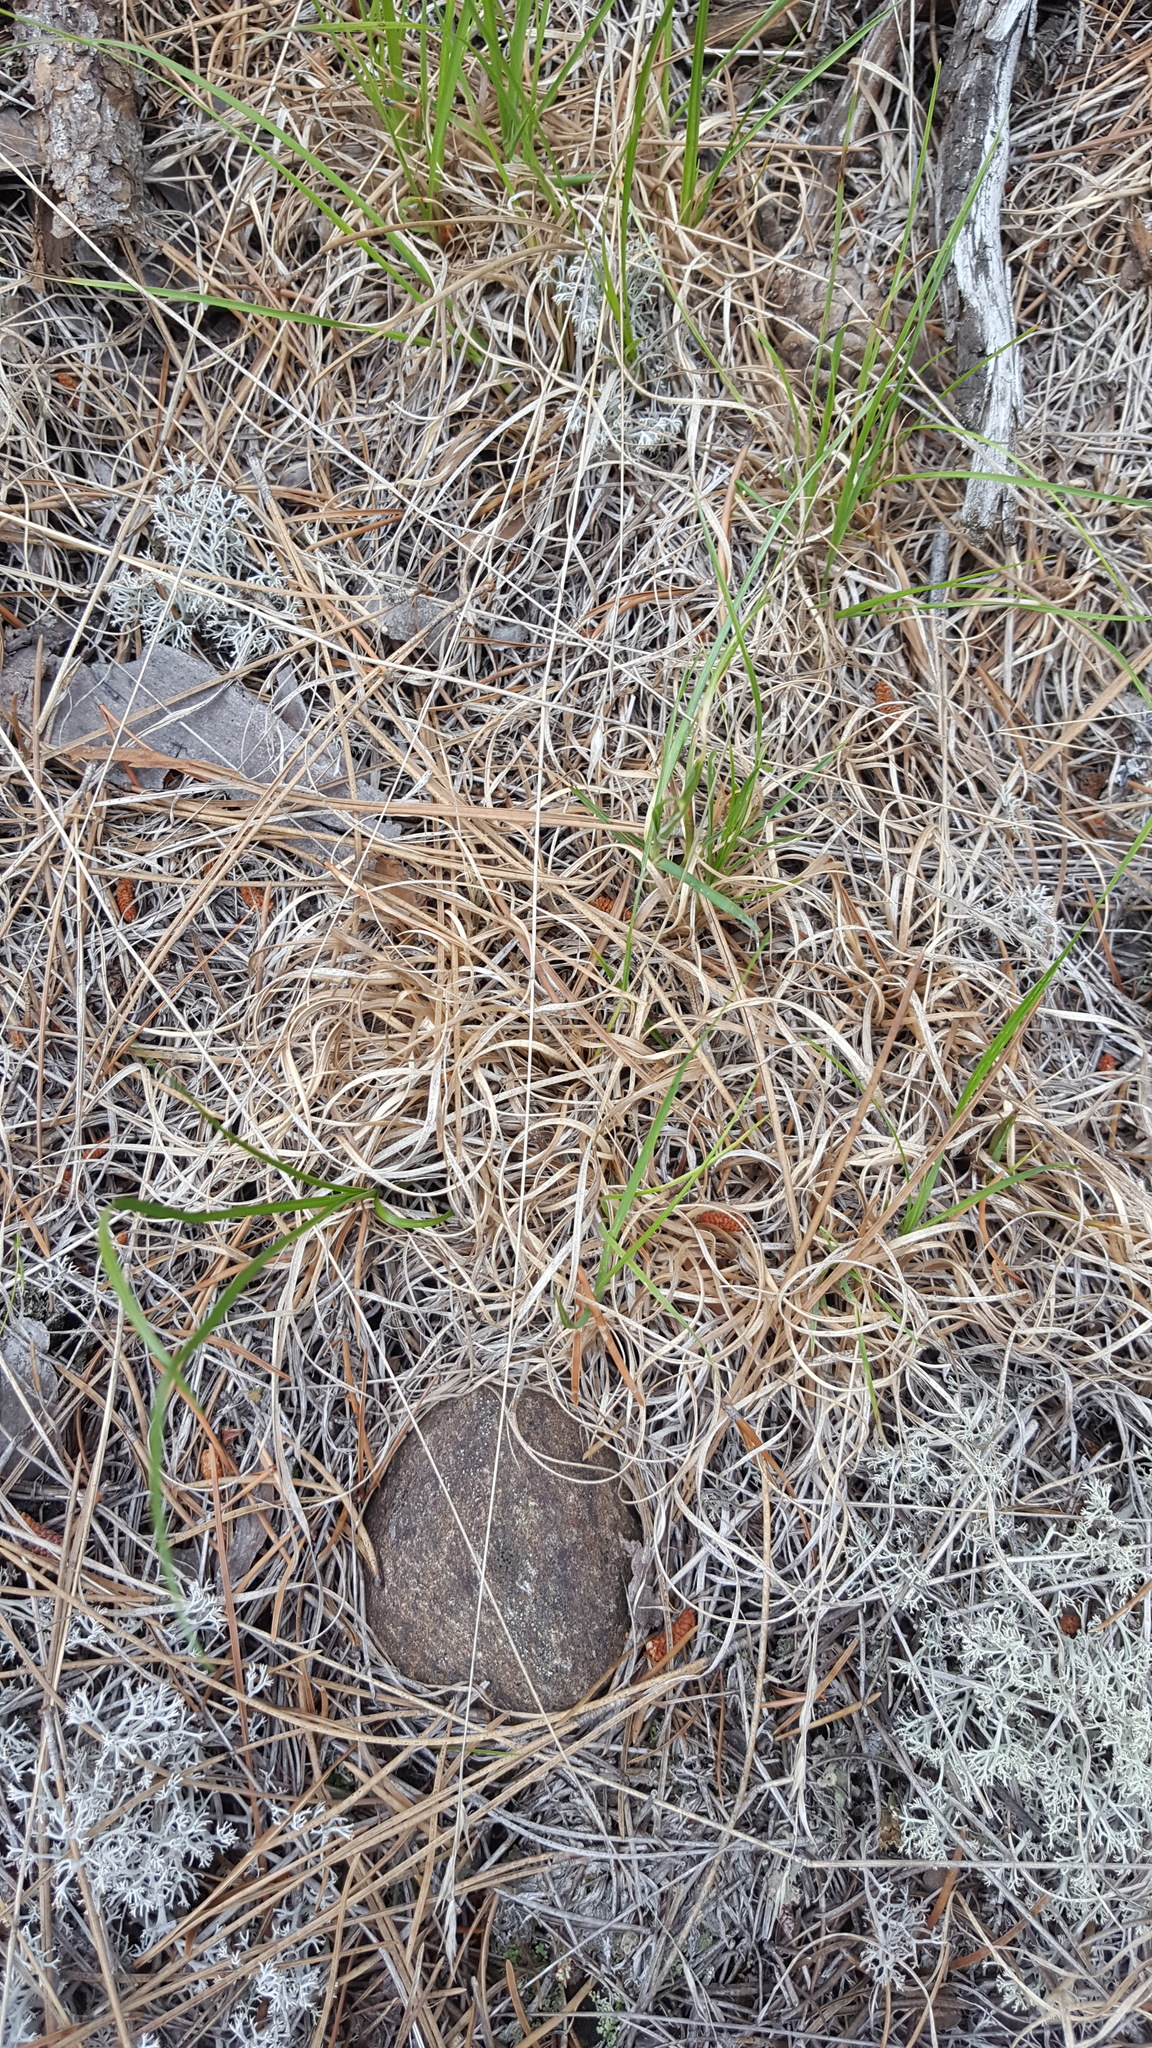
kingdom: Plantae
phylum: Tracheophyta
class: Liliopsida
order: Poales
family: Poaceae
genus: Danthonia
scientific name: Danthonia spicata
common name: Common wild oatgrass
